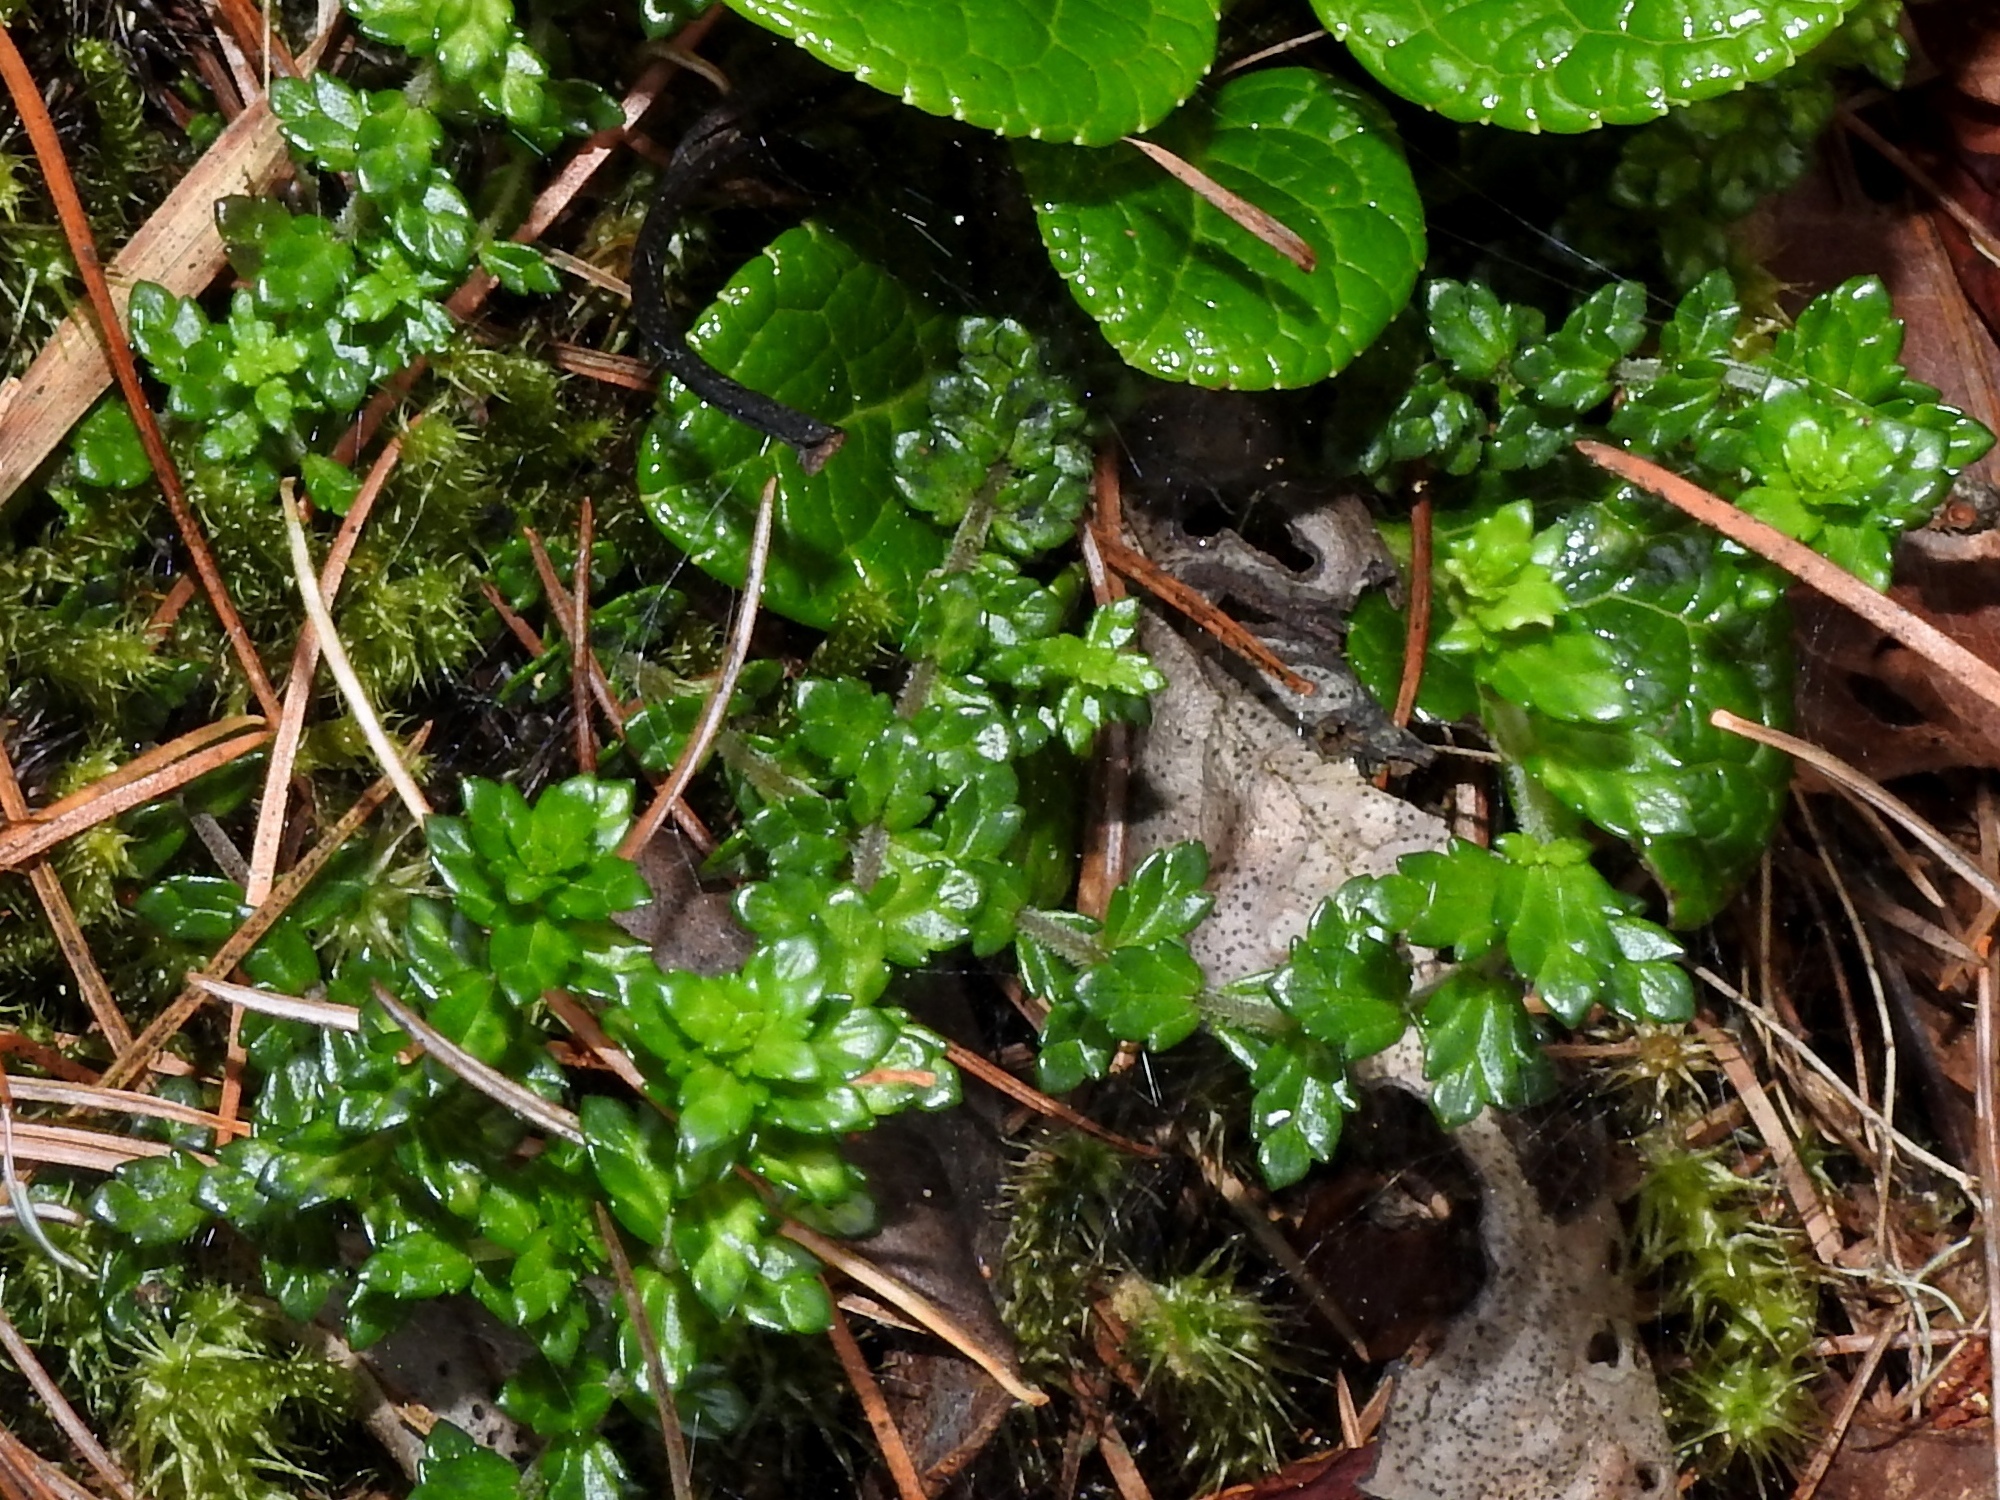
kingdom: Plantae
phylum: Tracheophyta
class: Magnoliopsida
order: Lamiales
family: Orobanchaceae
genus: Euphrasia
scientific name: Euphrasia tarokoana
